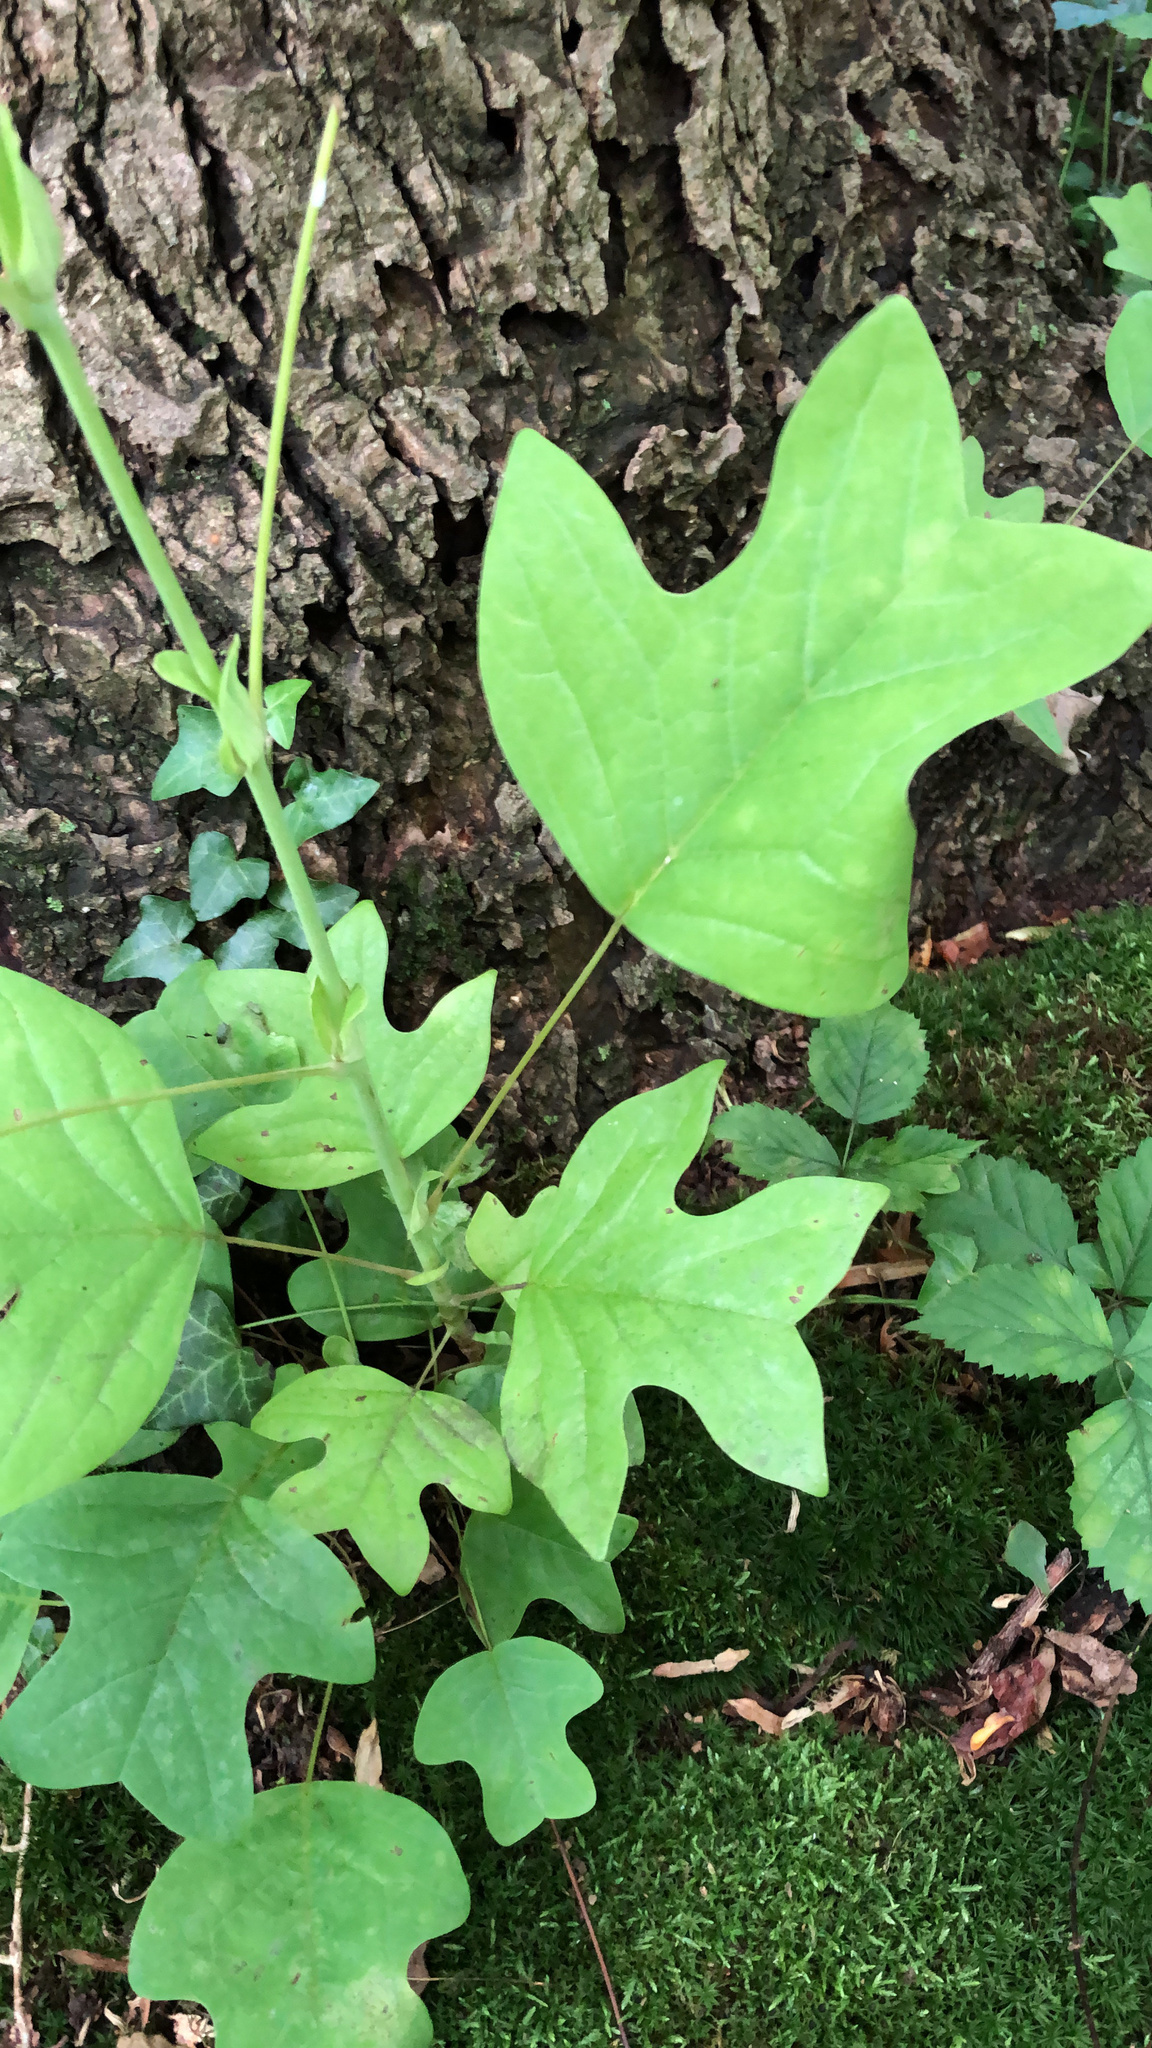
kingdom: Plantae
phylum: Tracheophyta
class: Magnoliopsida
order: Magnoliales
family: Magnoliaceae
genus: Liriodendron
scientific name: Liriodendron tulipifera
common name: Tulip tree
